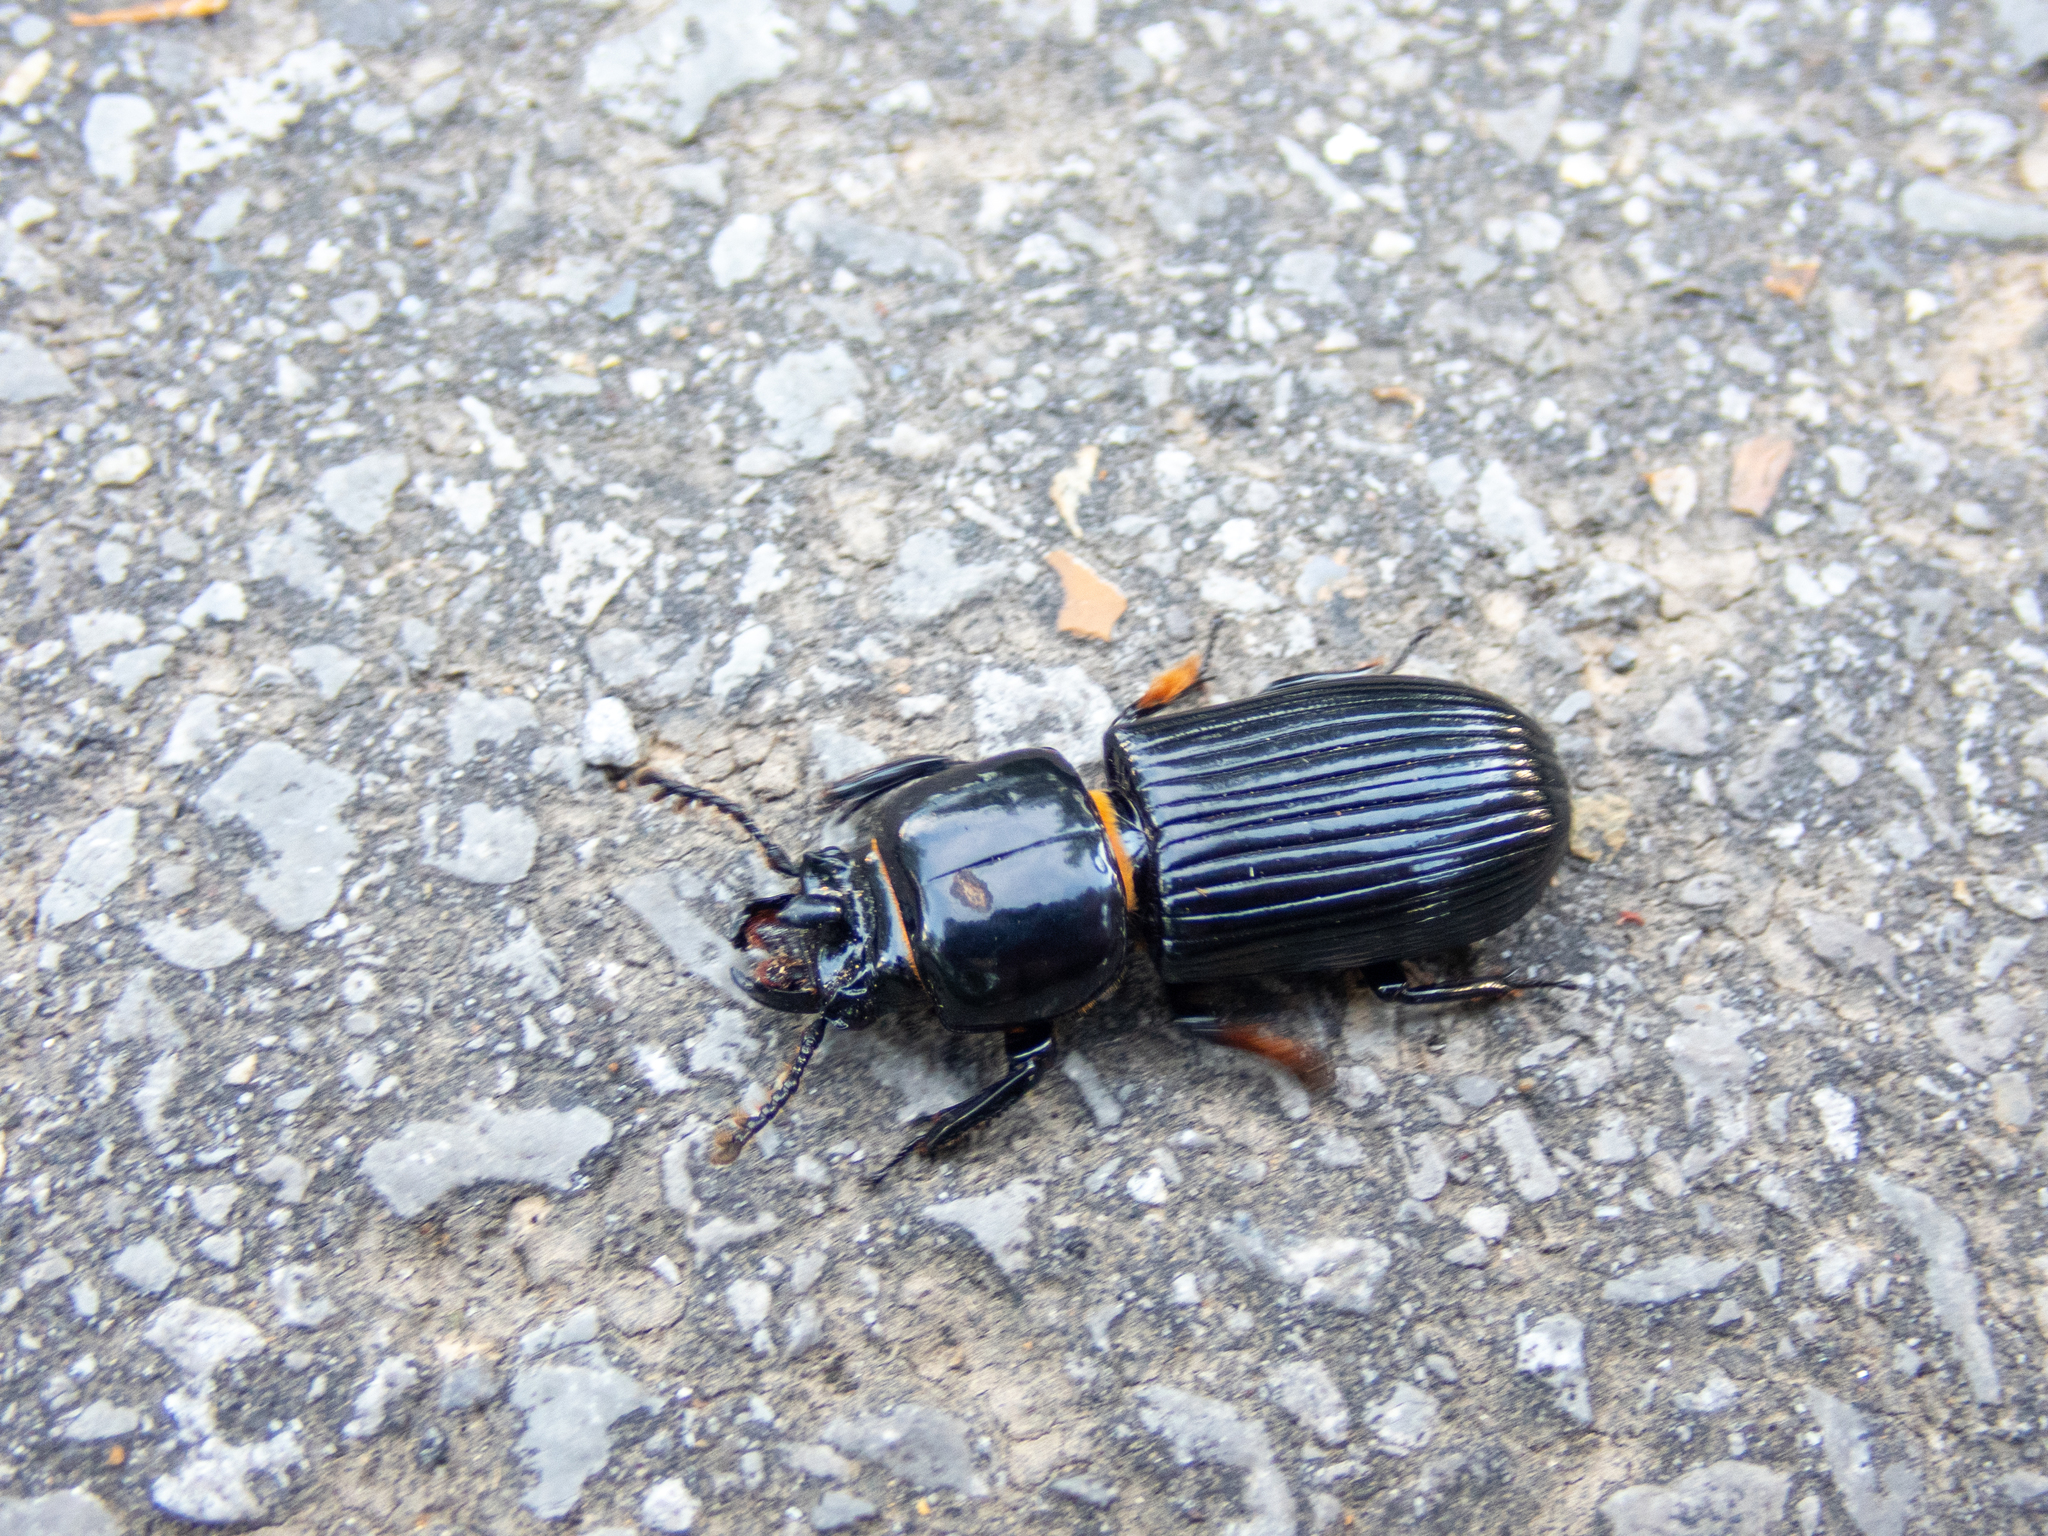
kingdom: Animalia
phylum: Arthropoda
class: Insecta
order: Coleoptera
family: Passalidae
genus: Odontotaenius
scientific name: Odontotaenius disjunctus
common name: Patent leather beetle
